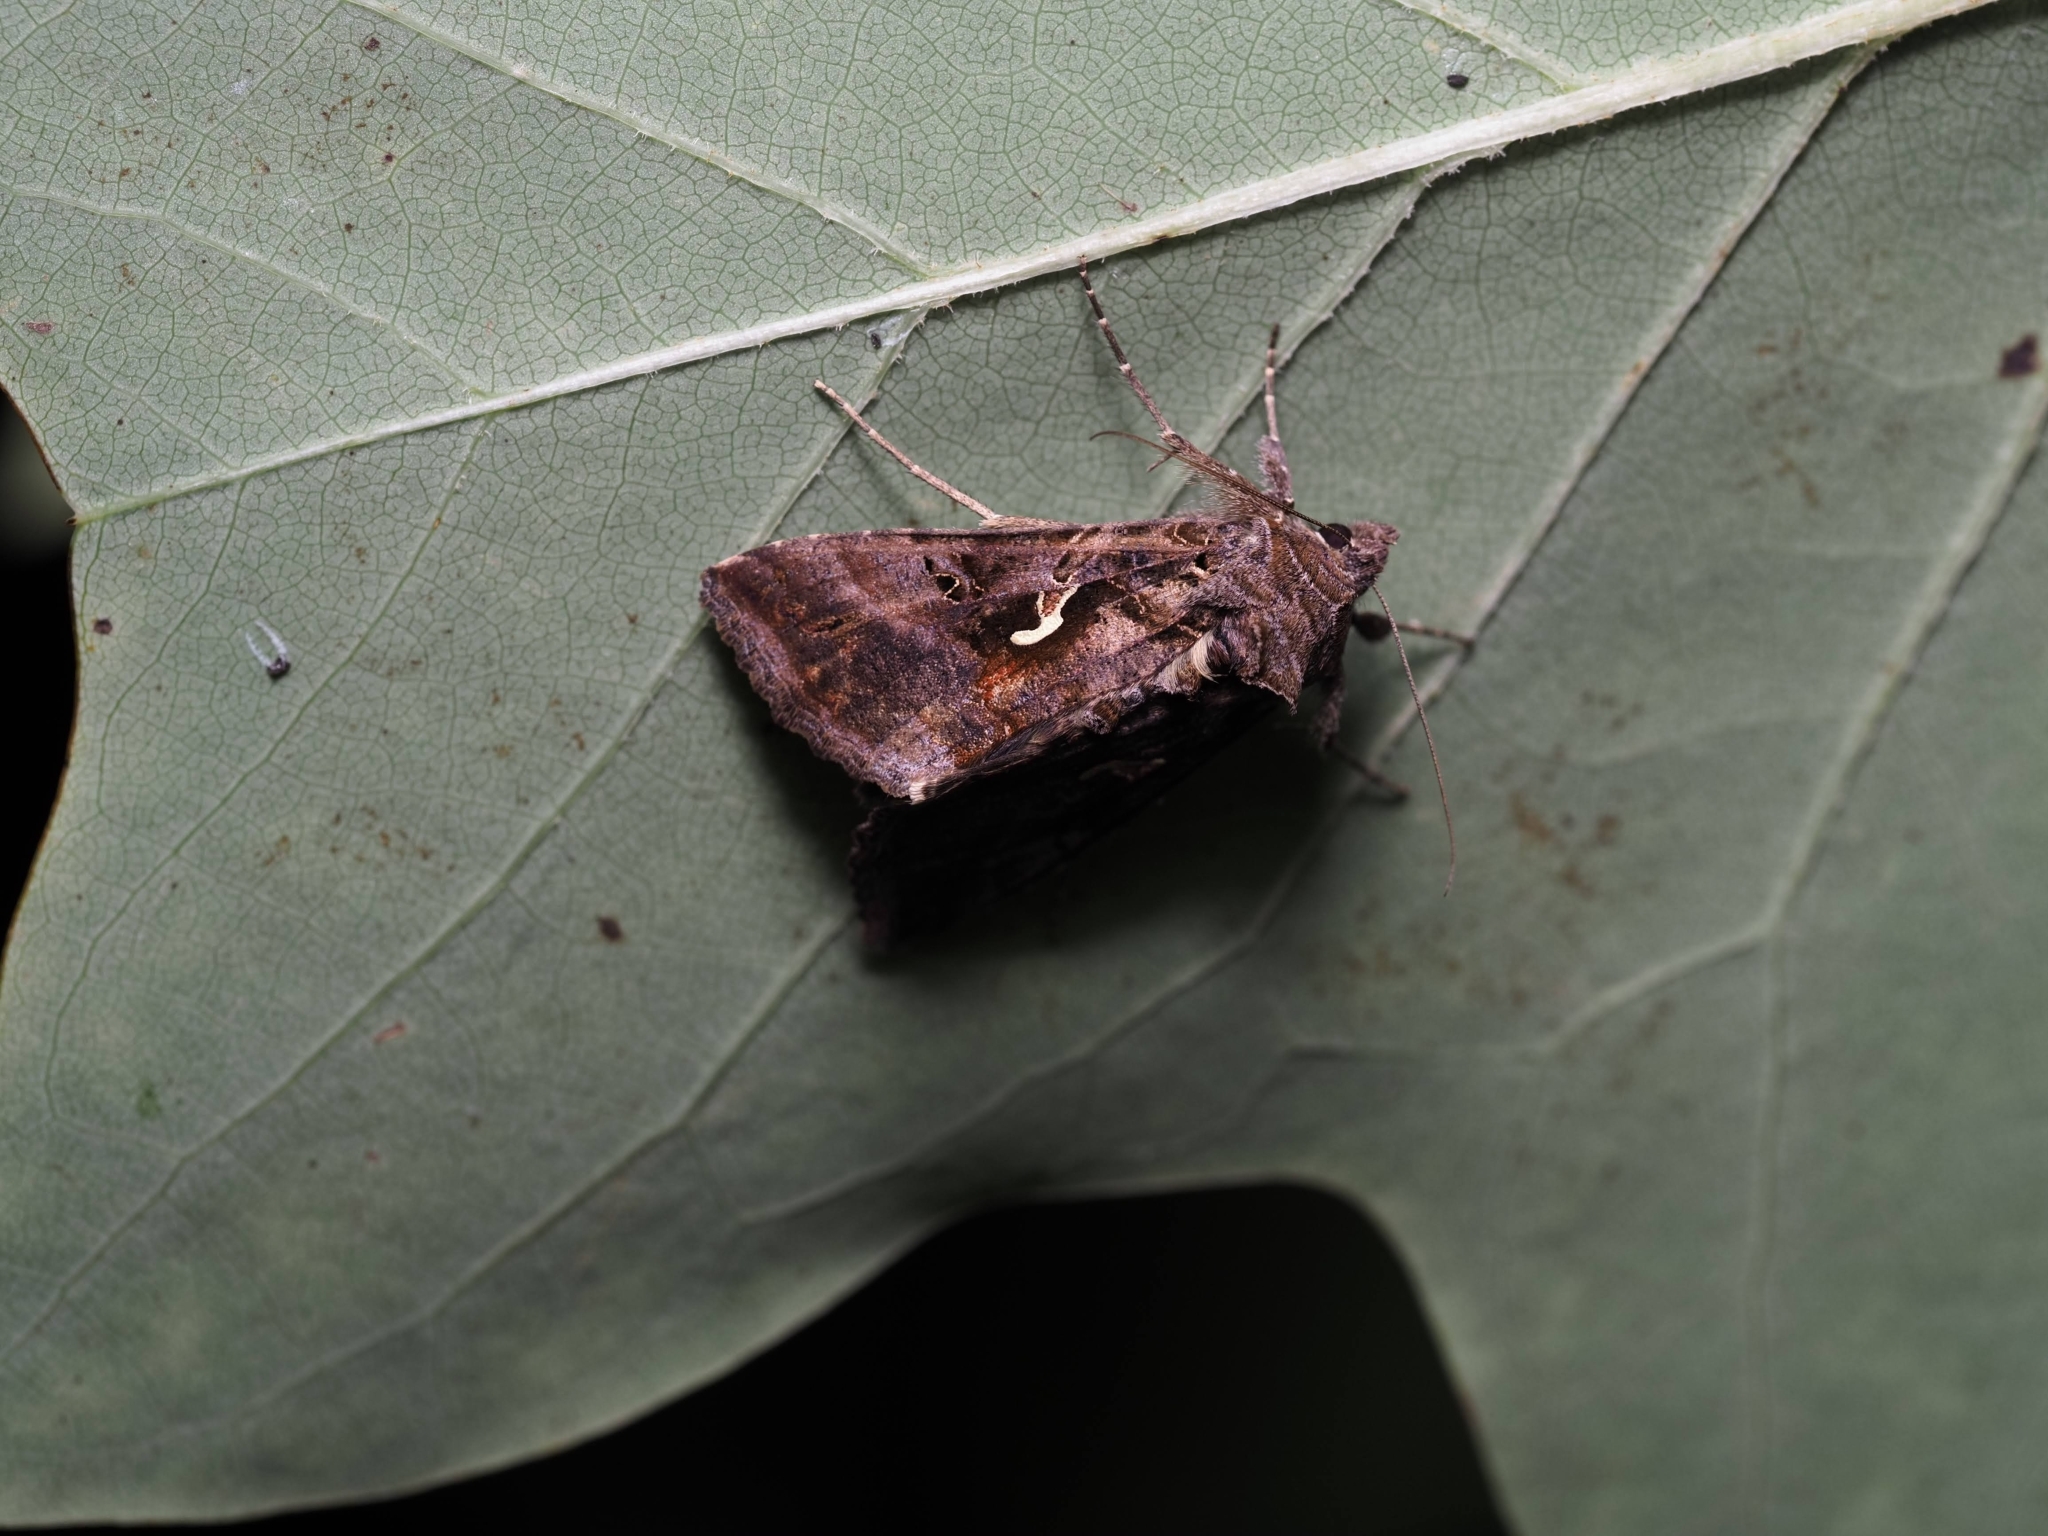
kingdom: Animalia
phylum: Arthropoda
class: Insecta
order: Lepidoptera
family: Noctuidae
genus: Autographa
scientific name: Autographa gamma
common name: Silver y
